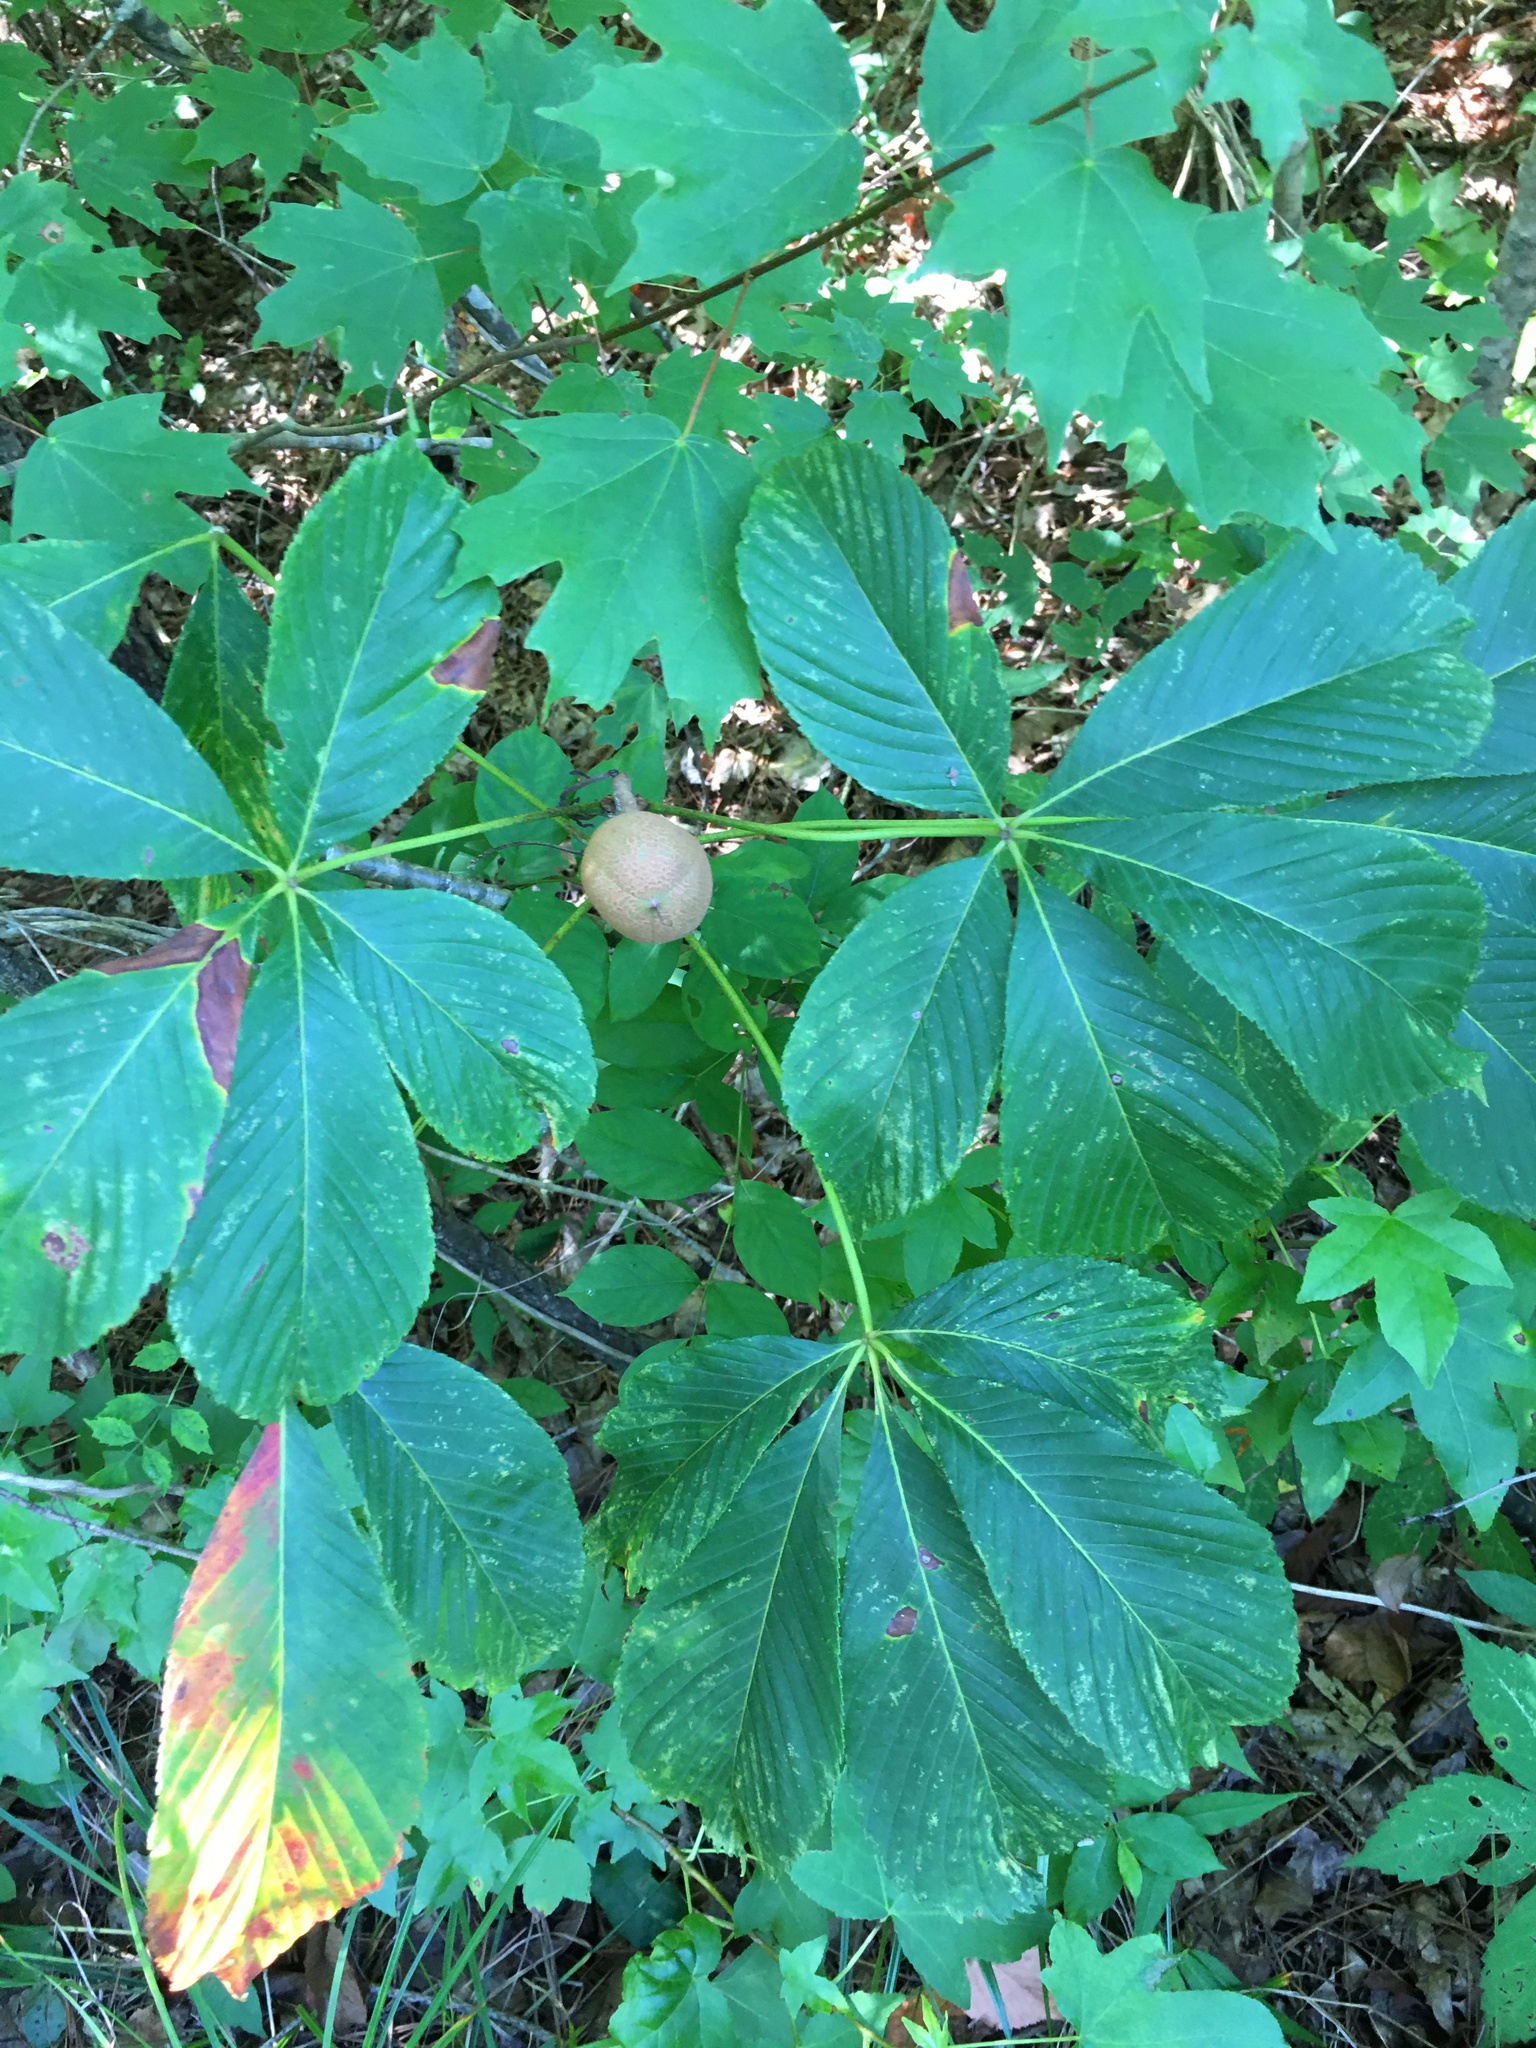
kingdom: Plantae
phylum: Tracheophyta
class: Magnoliopsida
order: Sapindales
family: Sapindaceae
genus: Aesculus
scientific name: Aesculus sylvatica
